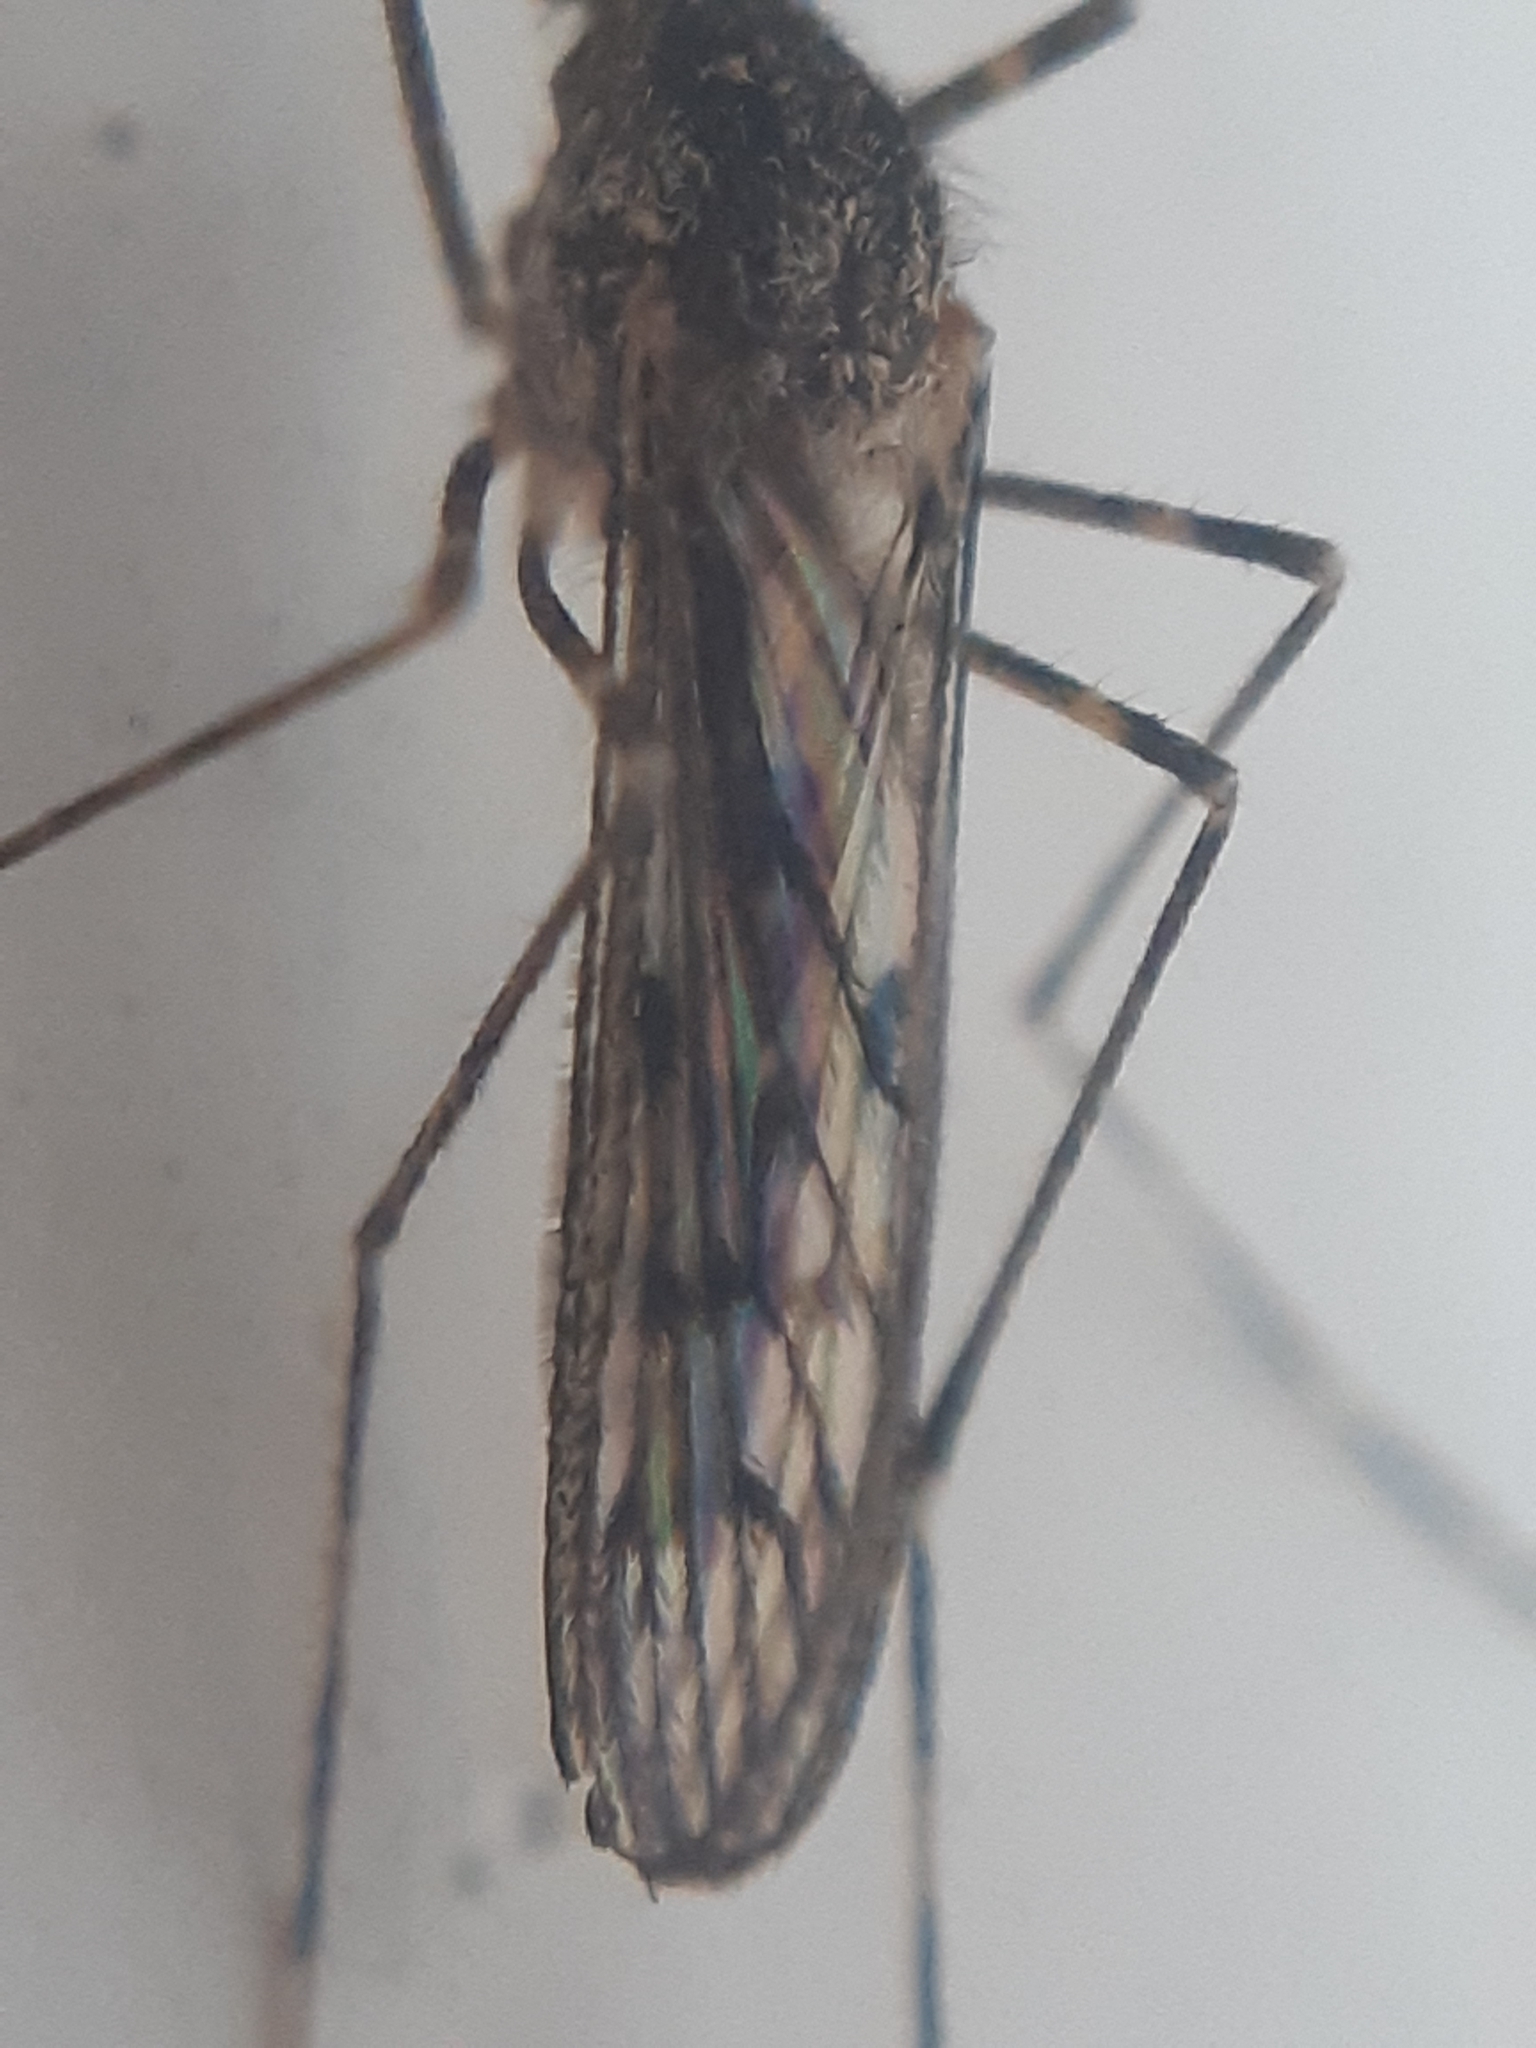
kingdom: Animalia
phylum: Arthropoda
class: Insecta
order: Diptera
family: Culicidae
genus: Culiseta
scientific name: Culiseta annulata
